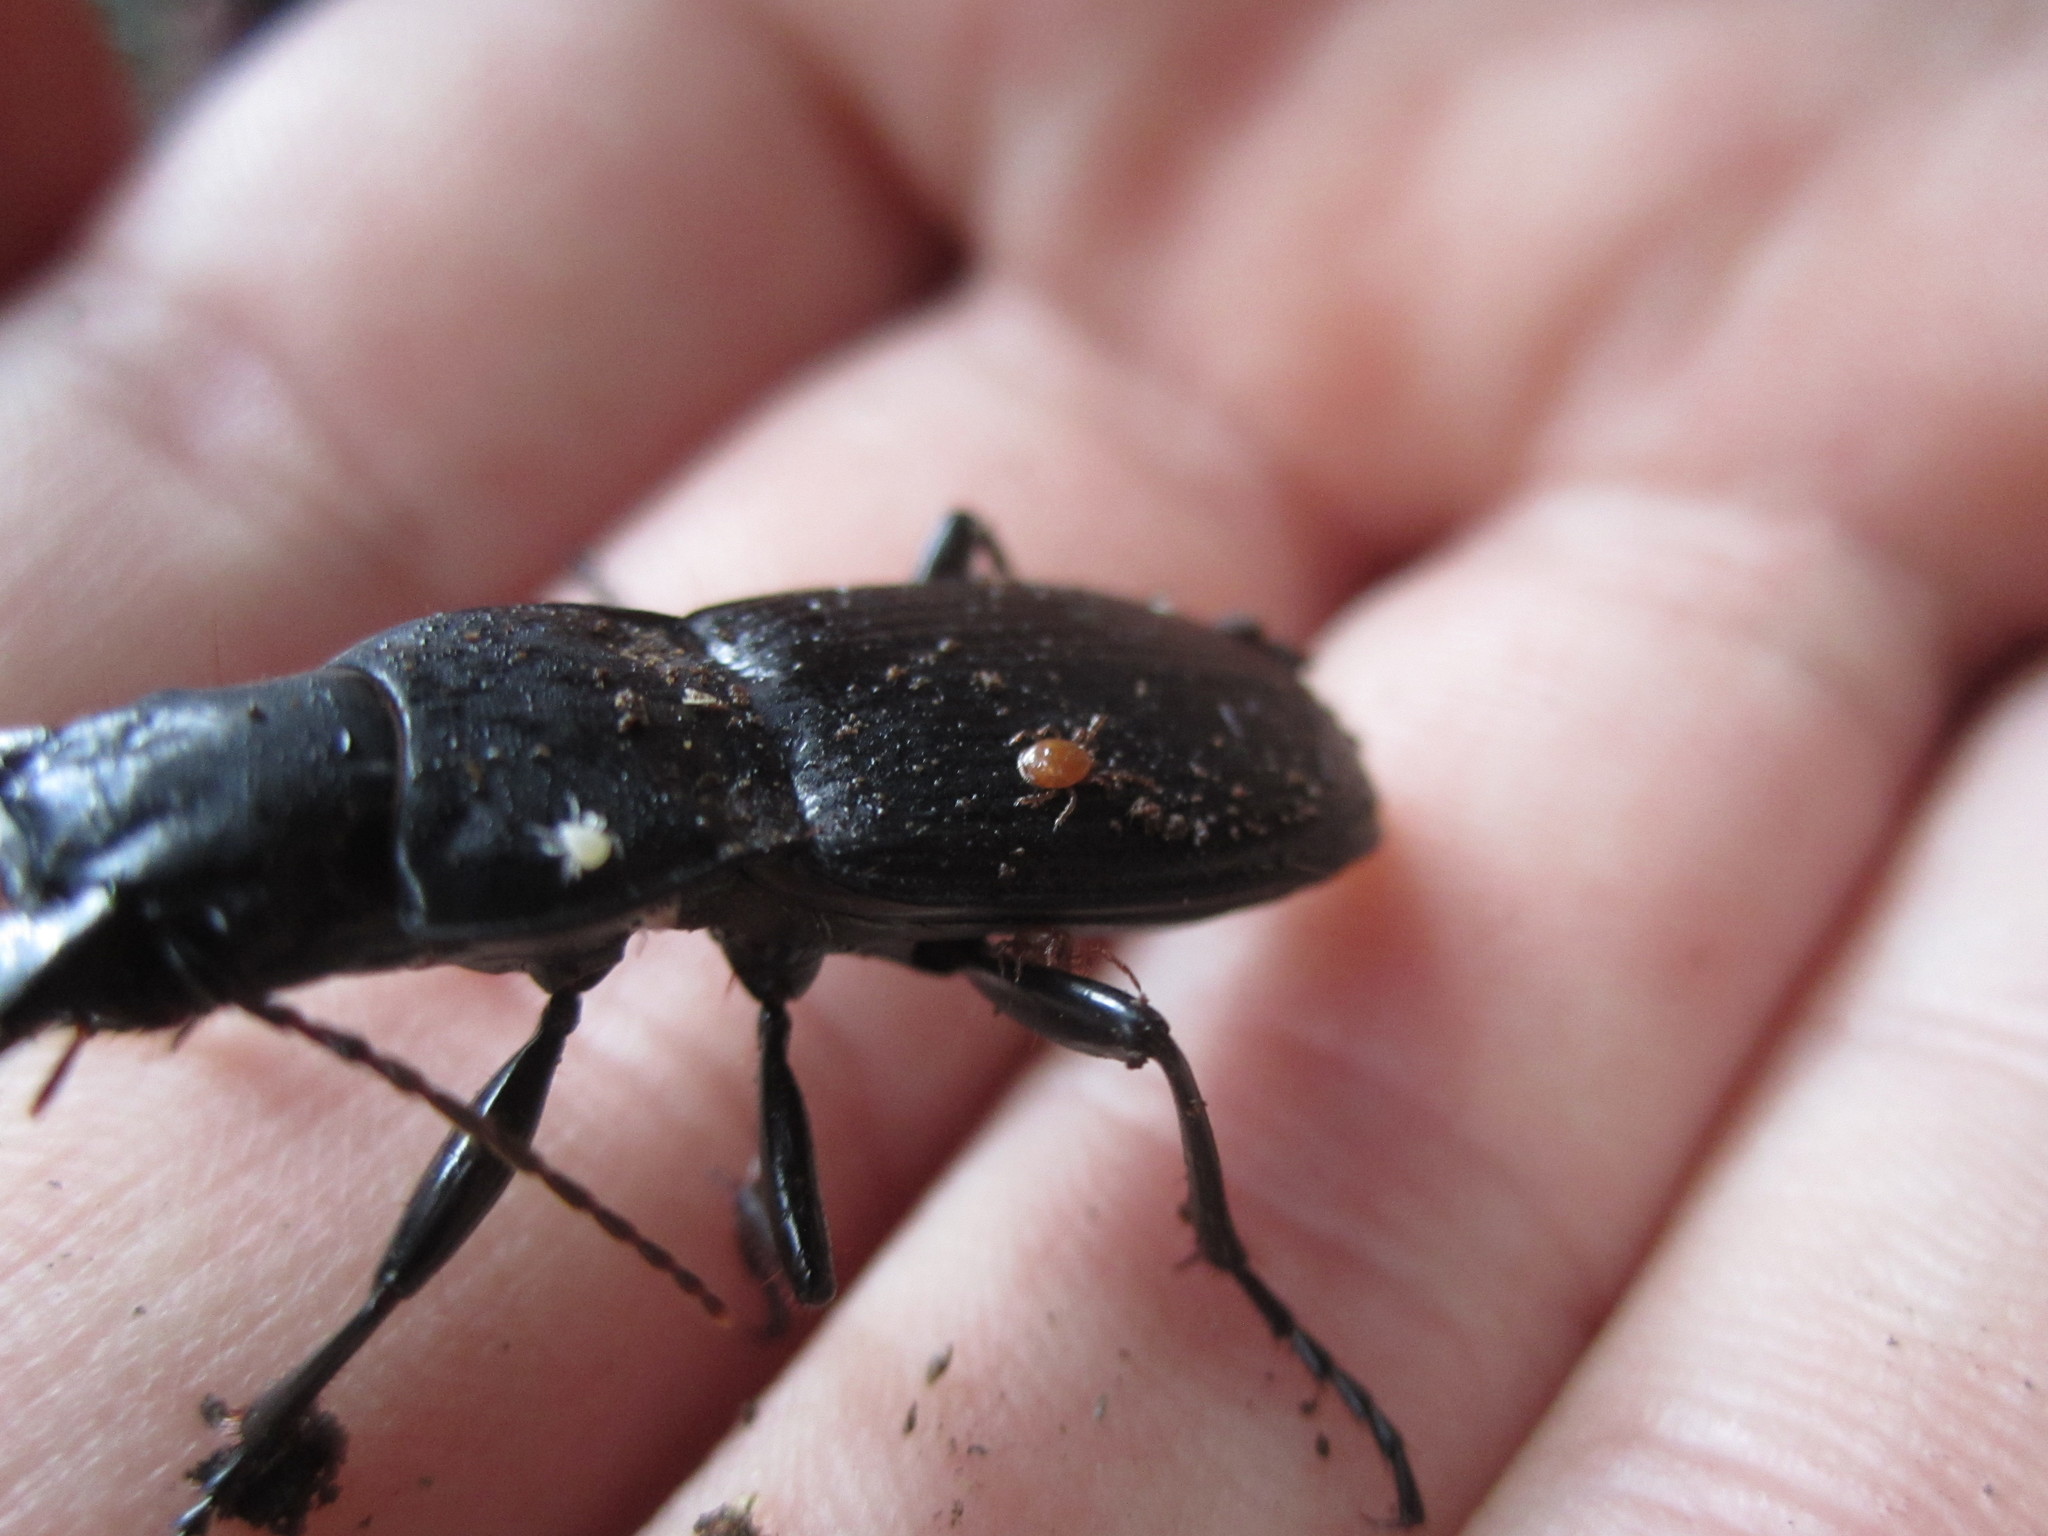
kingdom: Animalia
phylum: Arthropoda
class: Arachnida
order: Mesostigmata
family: Discozerconidae
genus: Berzercon
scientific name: Berzercon ferdinandi
